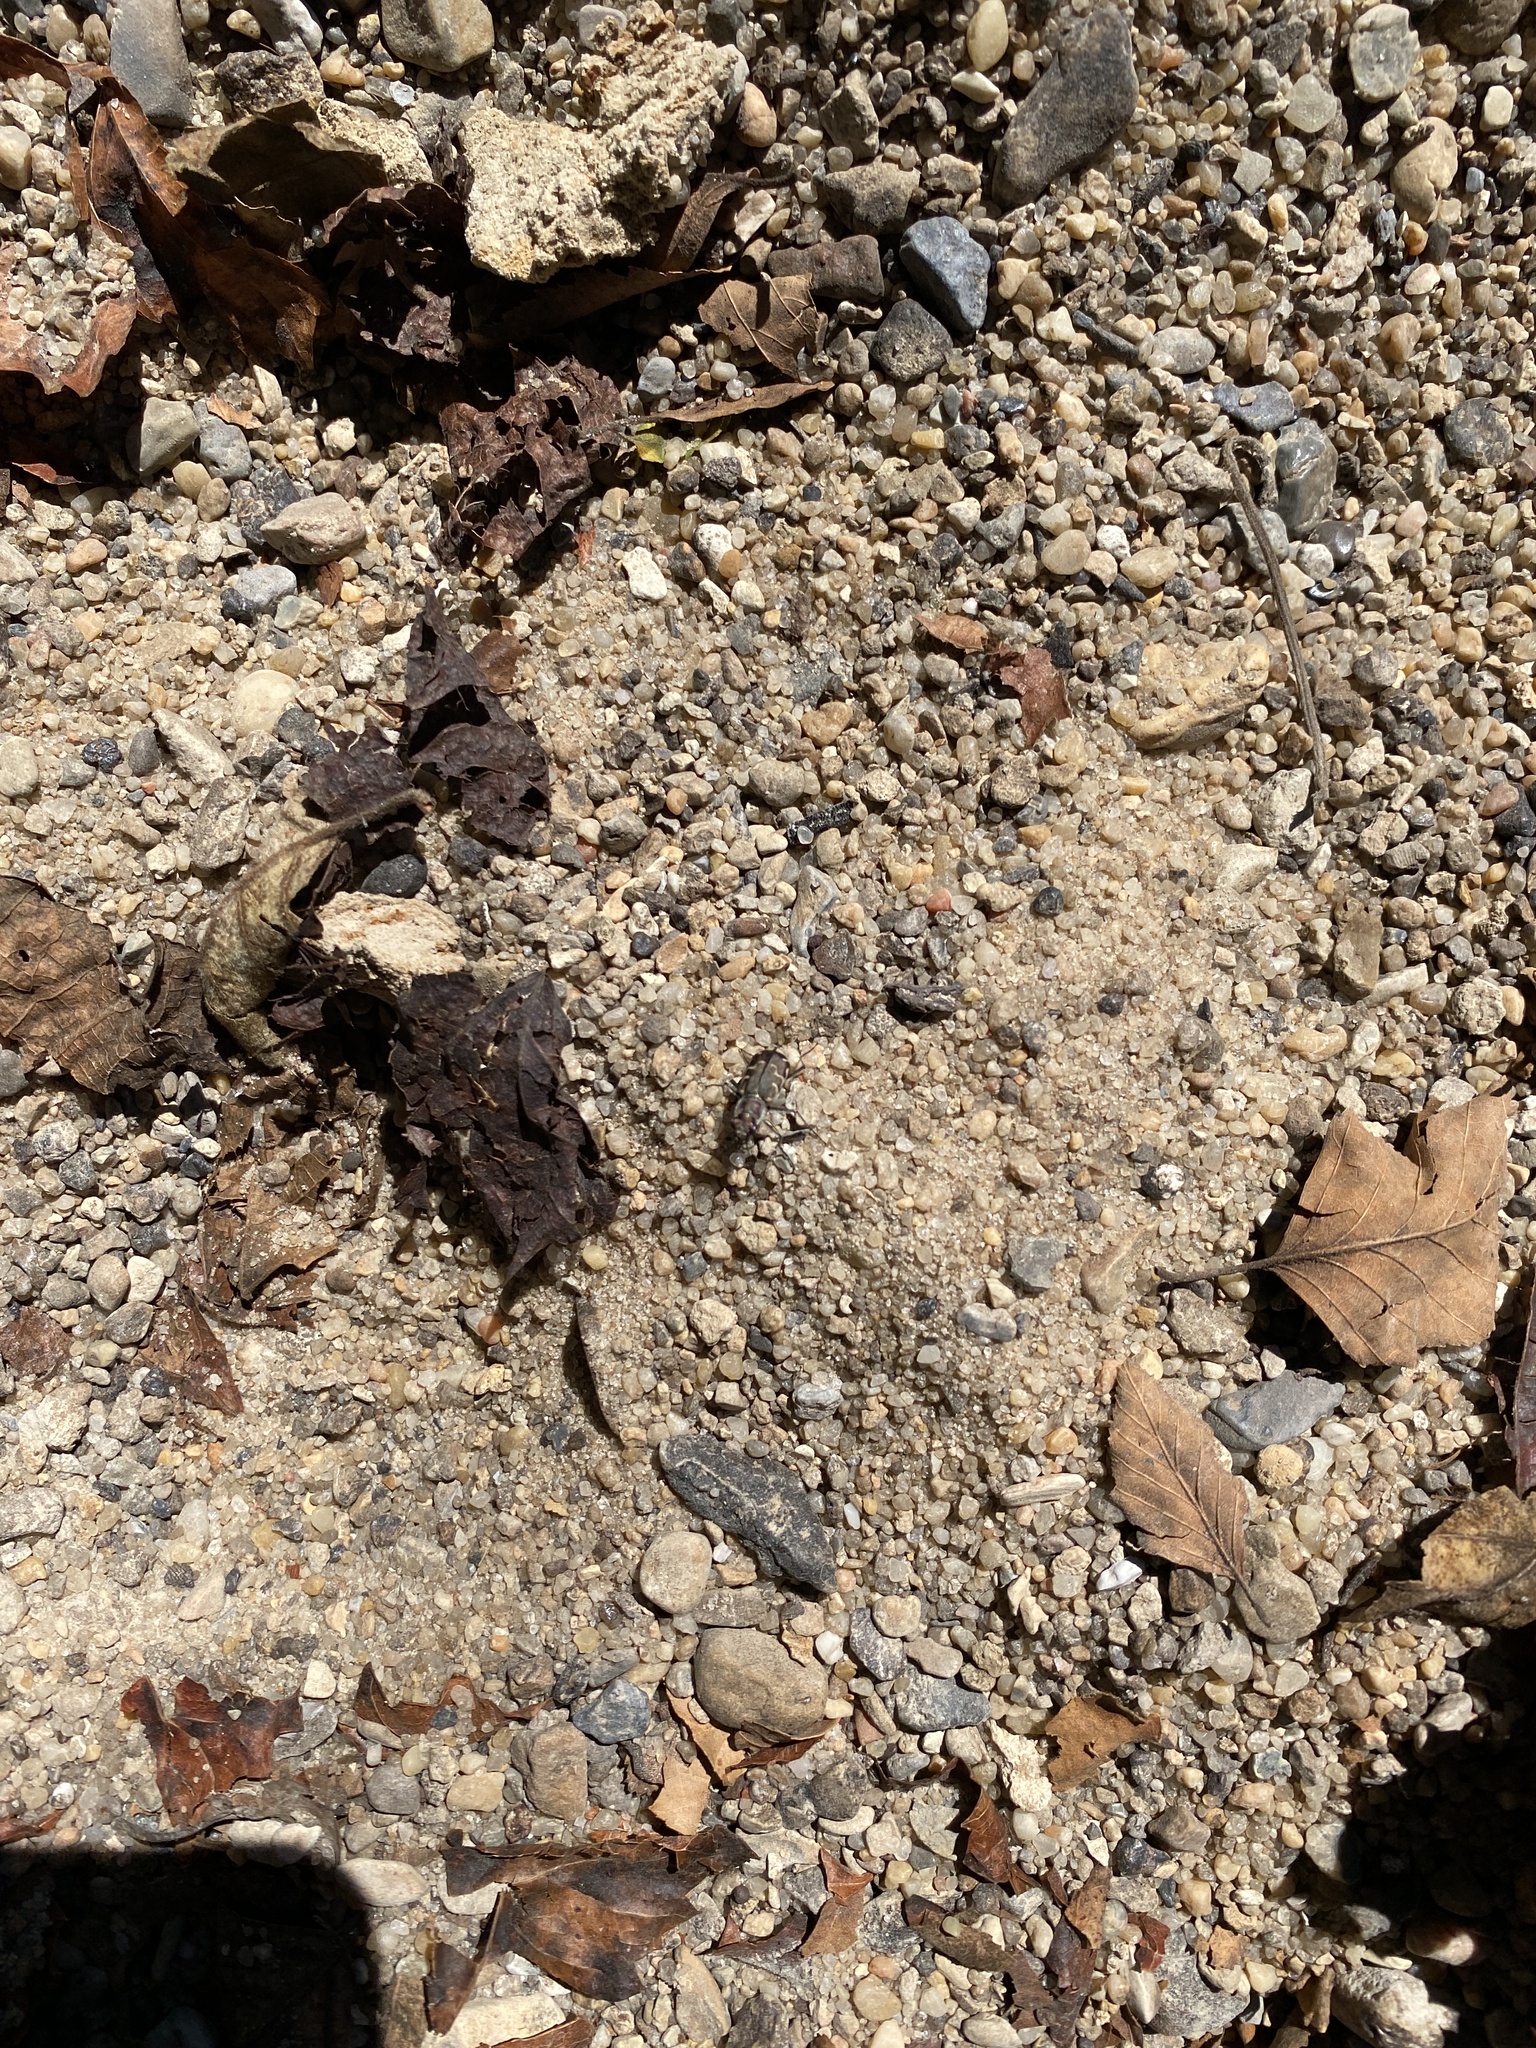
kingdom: Animalia
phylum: Arthropoda
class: Insecta
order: Coleoptera
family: Carabidae
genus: Cicindela
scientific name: Cicindela repanda
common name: Bronzed tiger beetle
